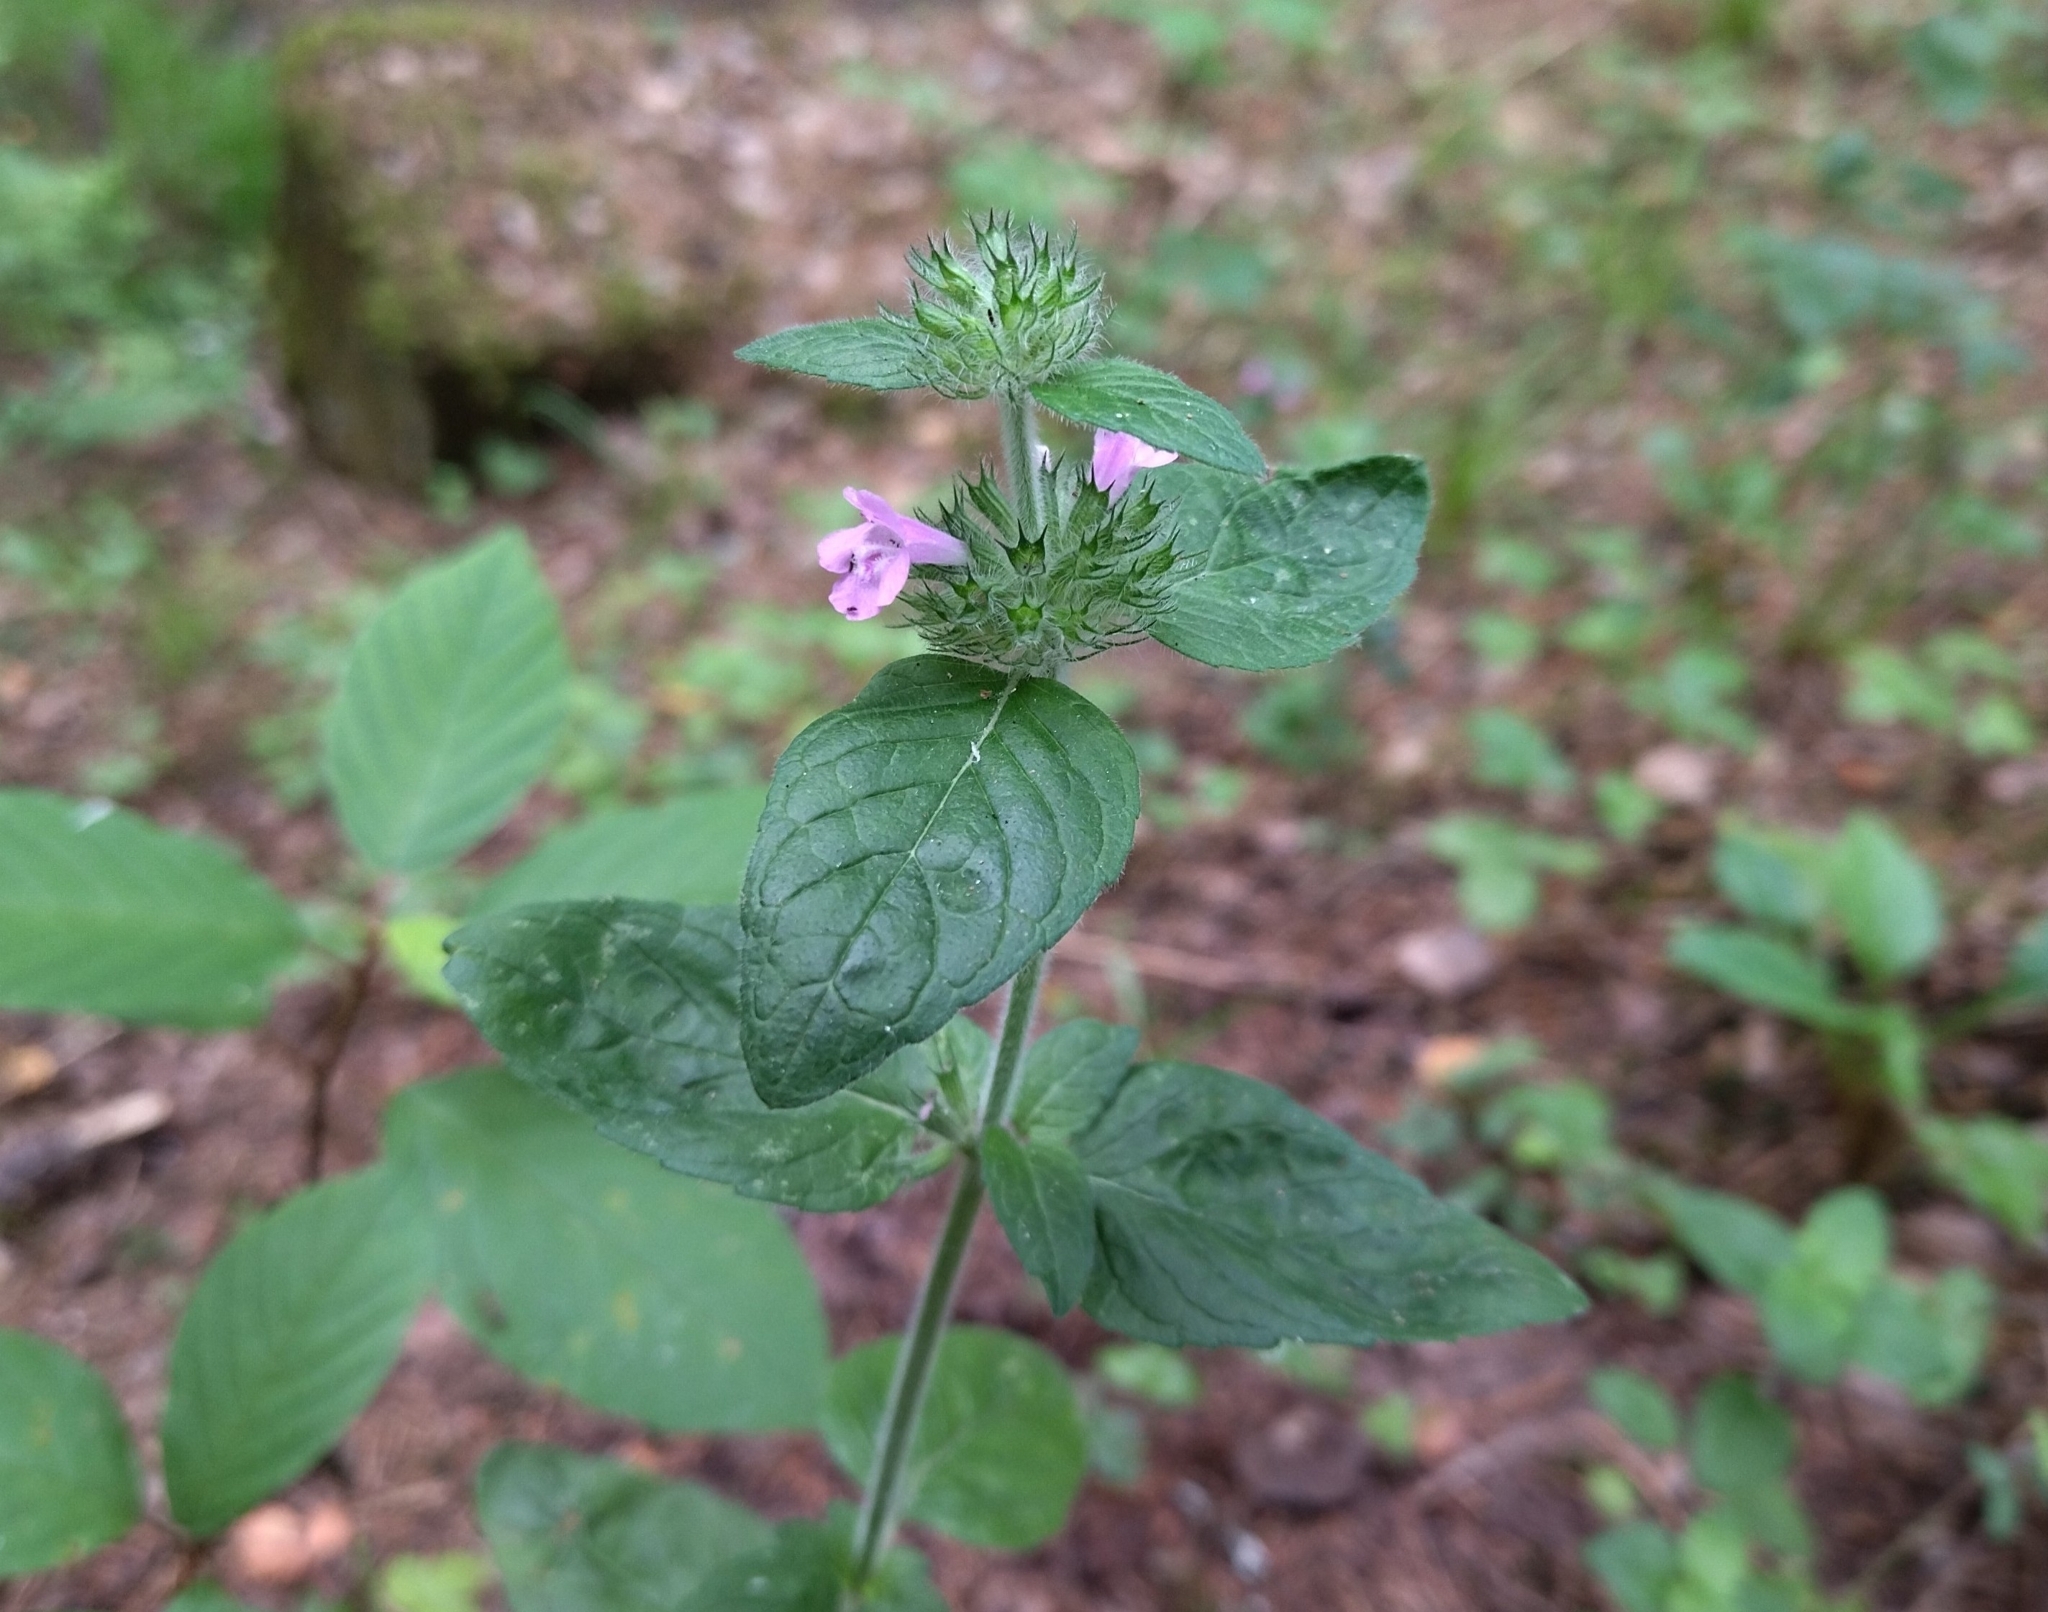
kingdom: Plantae
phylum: Tracheophyta
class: Magnoliopsida
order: Lamiales
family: Lamiaceae
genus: Clinopodium
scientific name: Clinopodium vulgare
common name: Wild basil
